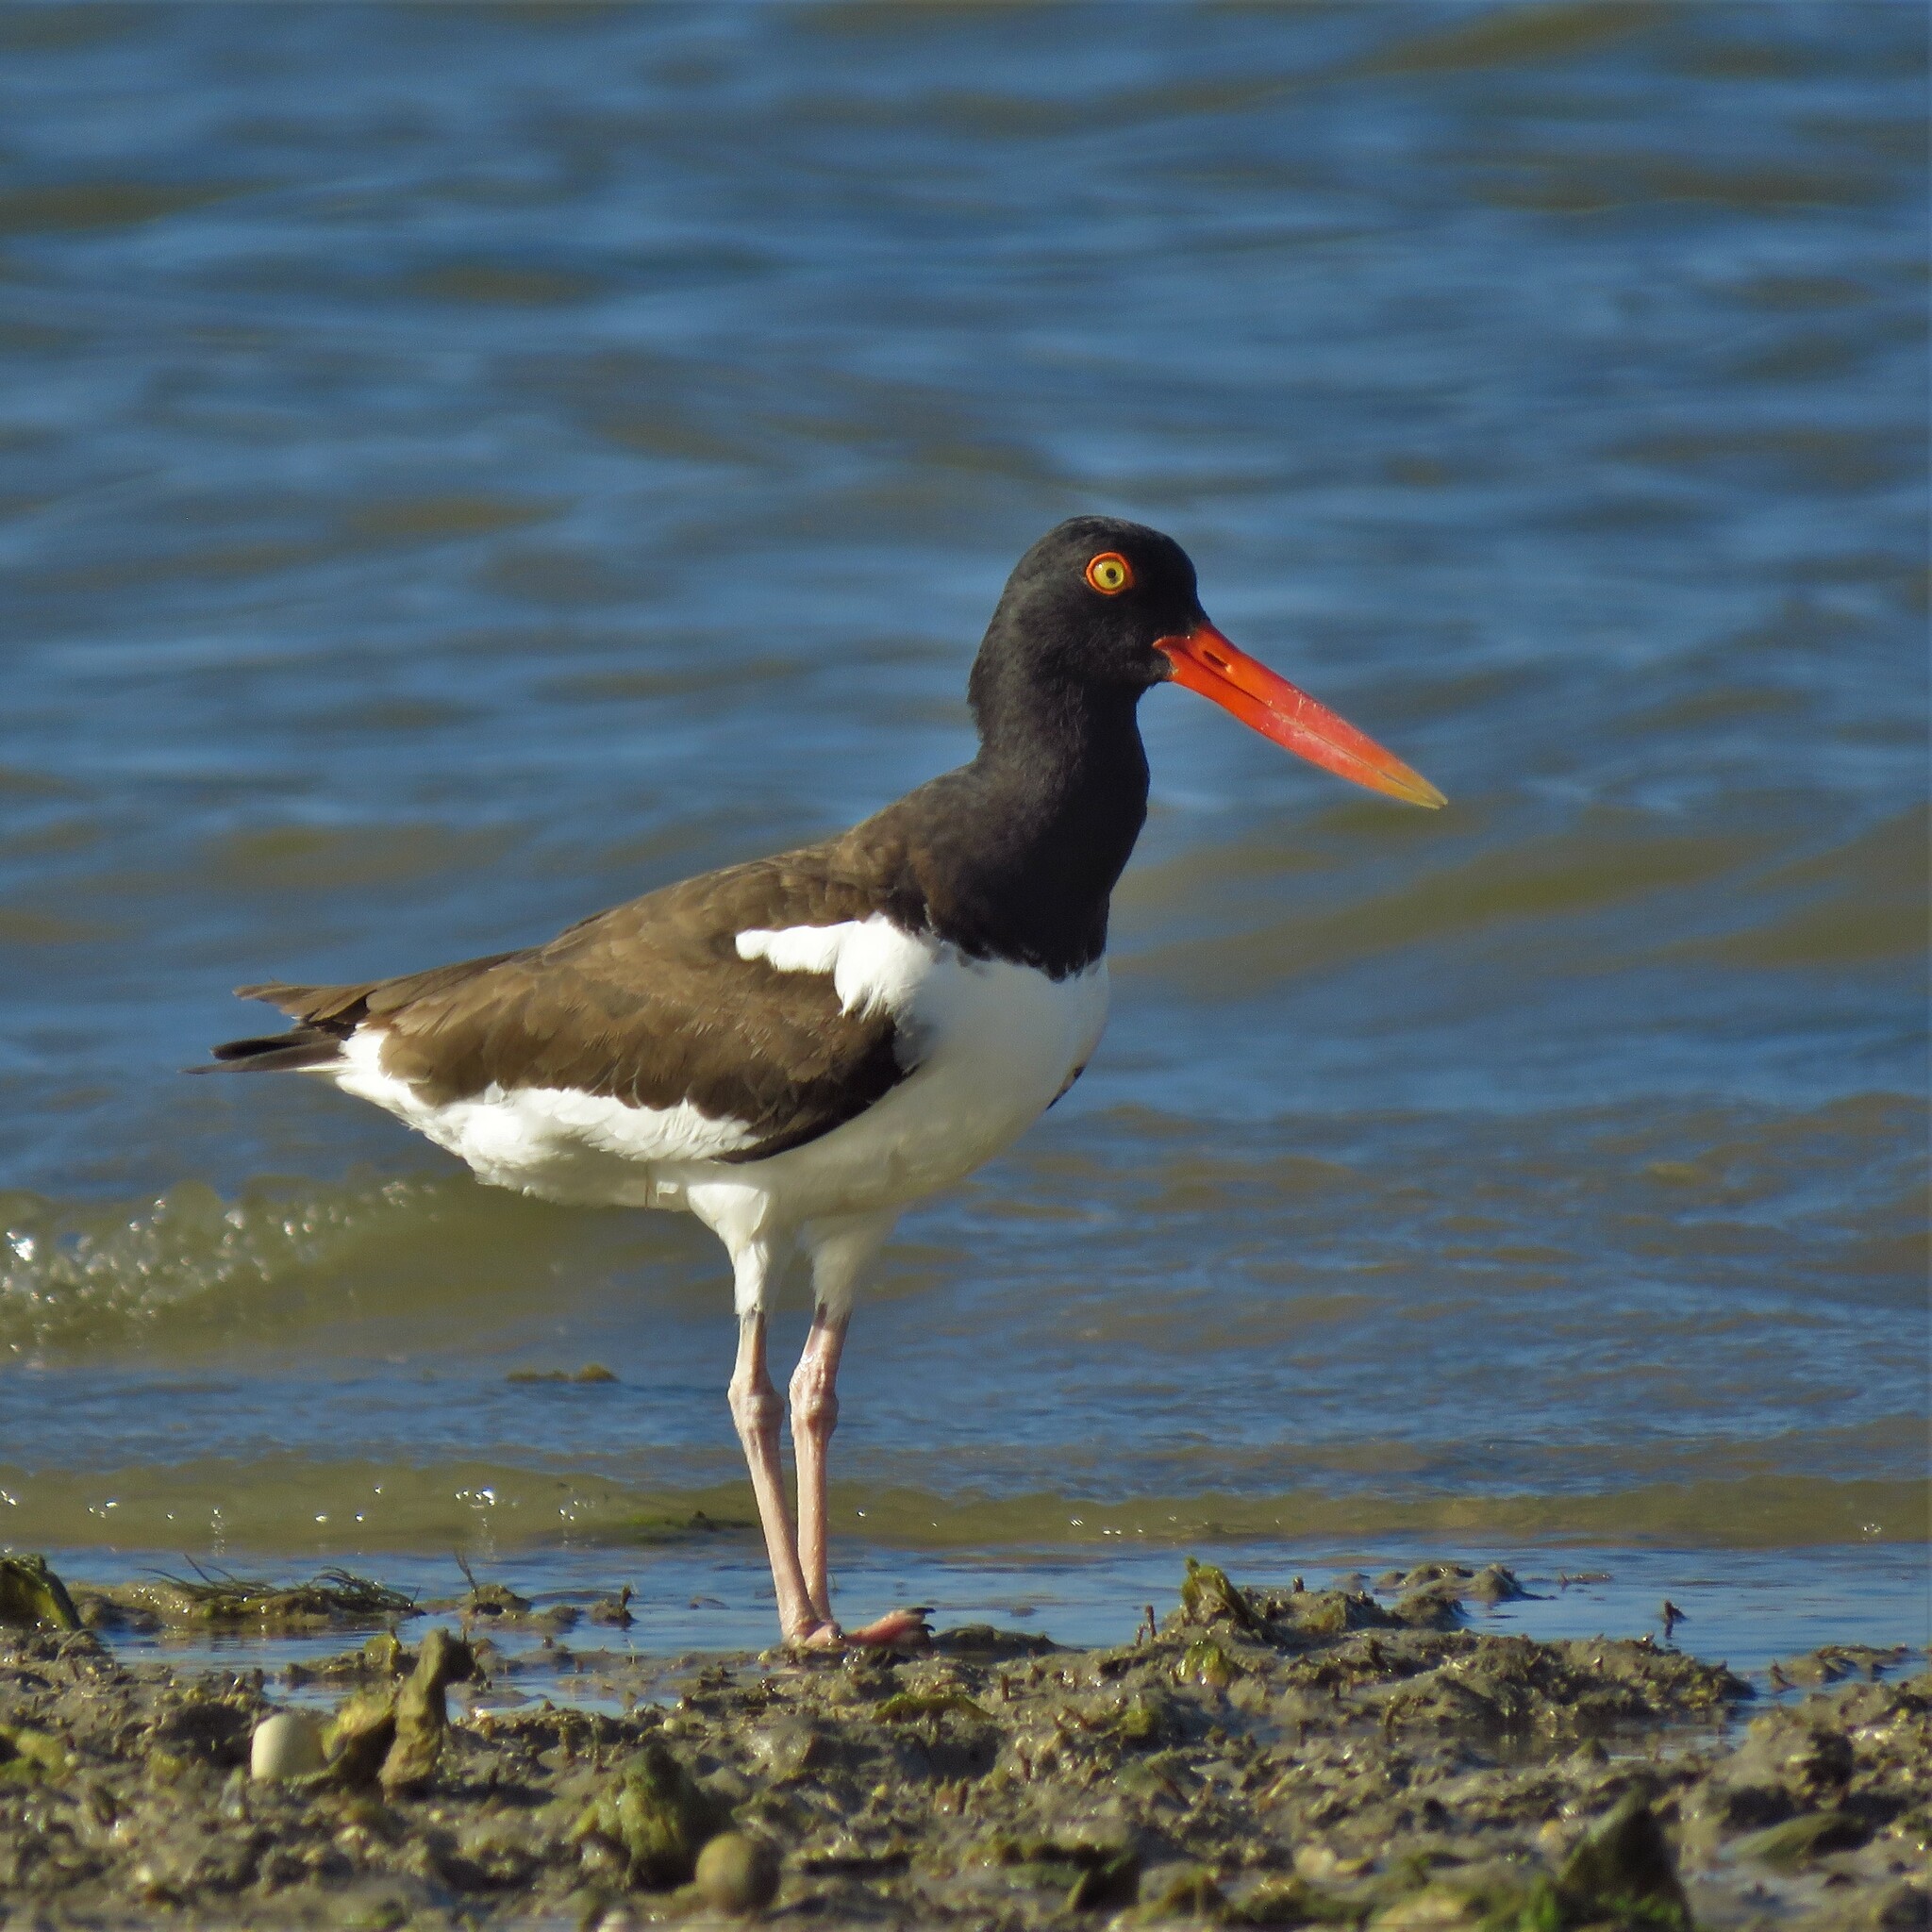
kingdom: Animalia
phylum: Chordata
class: Aves
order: Charadriiformes
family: Haematopodidae
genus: Haematopus
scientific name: Haematopus palliatus
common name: American oystercatcher
